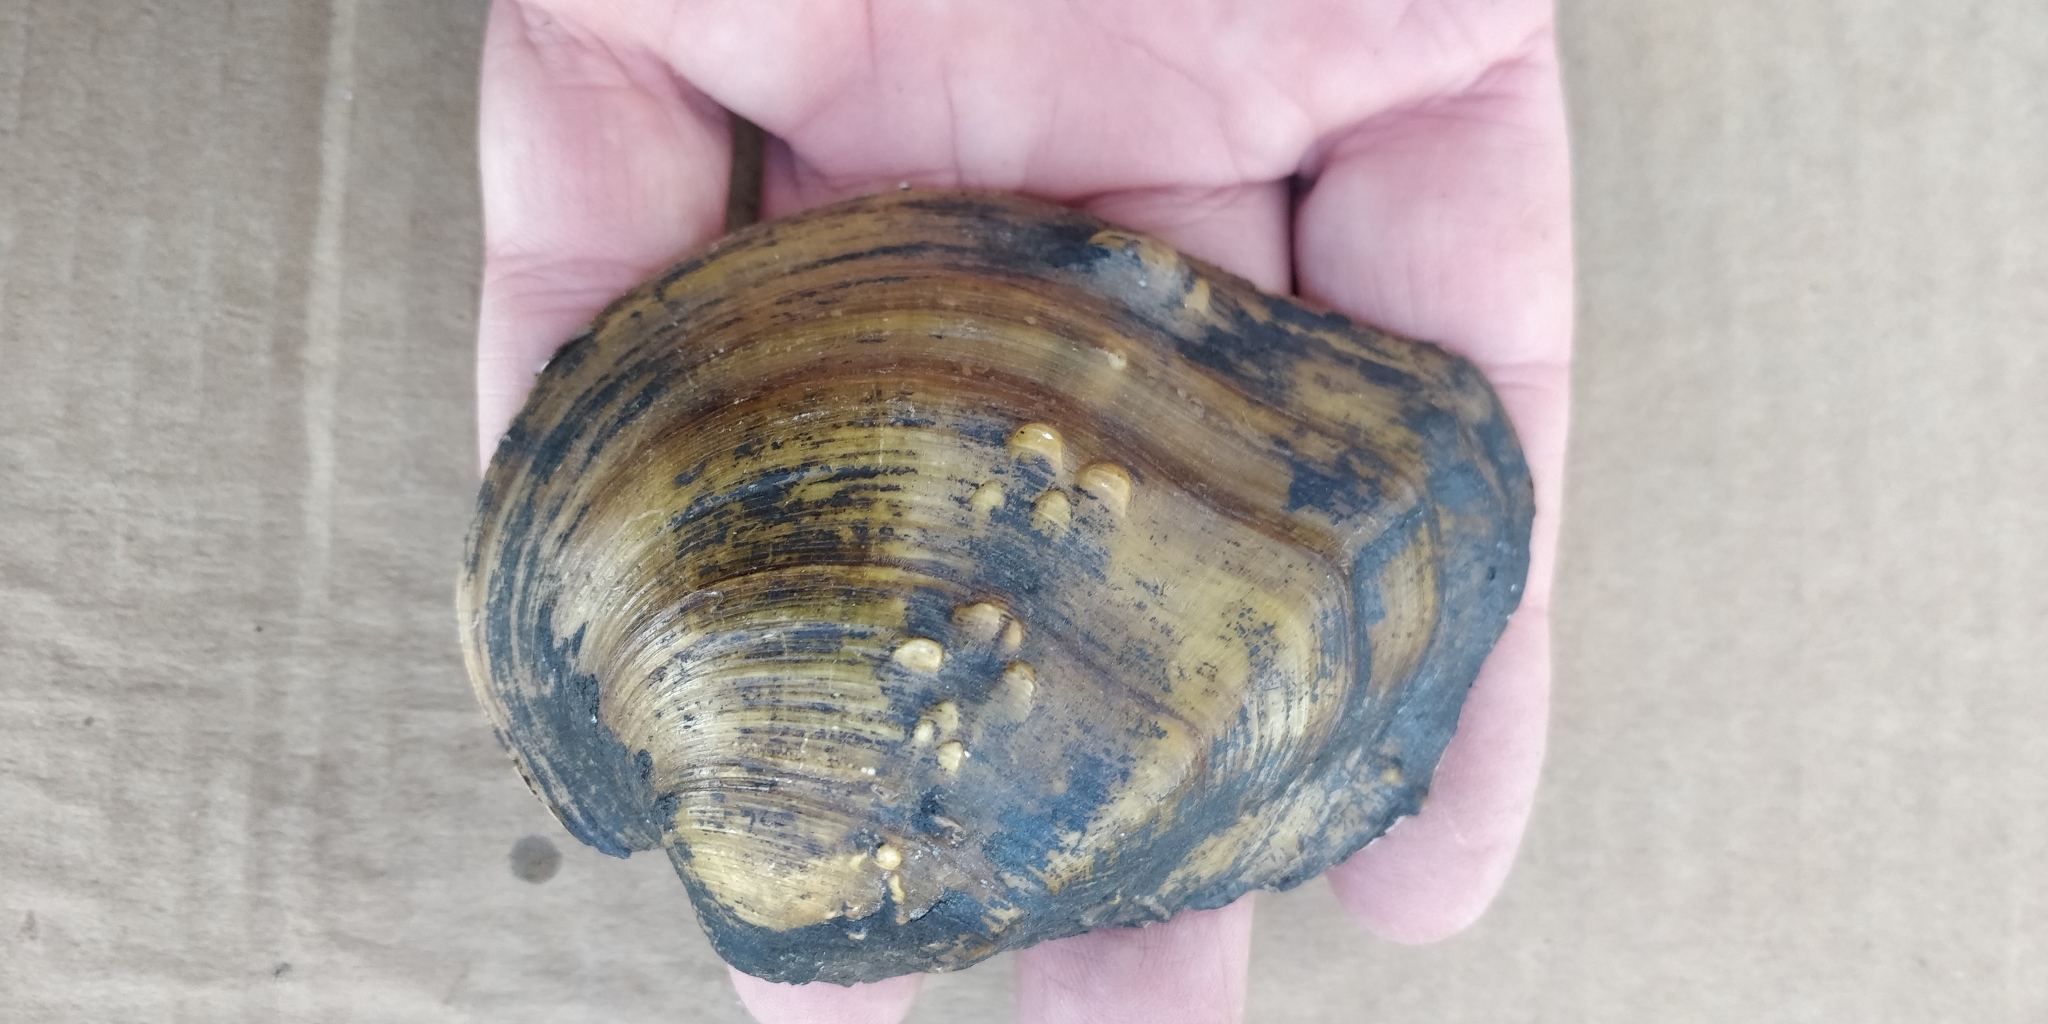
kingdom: Animalia
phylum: Mollusca
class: Bivalvia
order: Unionida
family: Unionidae
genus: Quadrula
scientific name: Quadrula quadrula
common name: Mapleleaf
